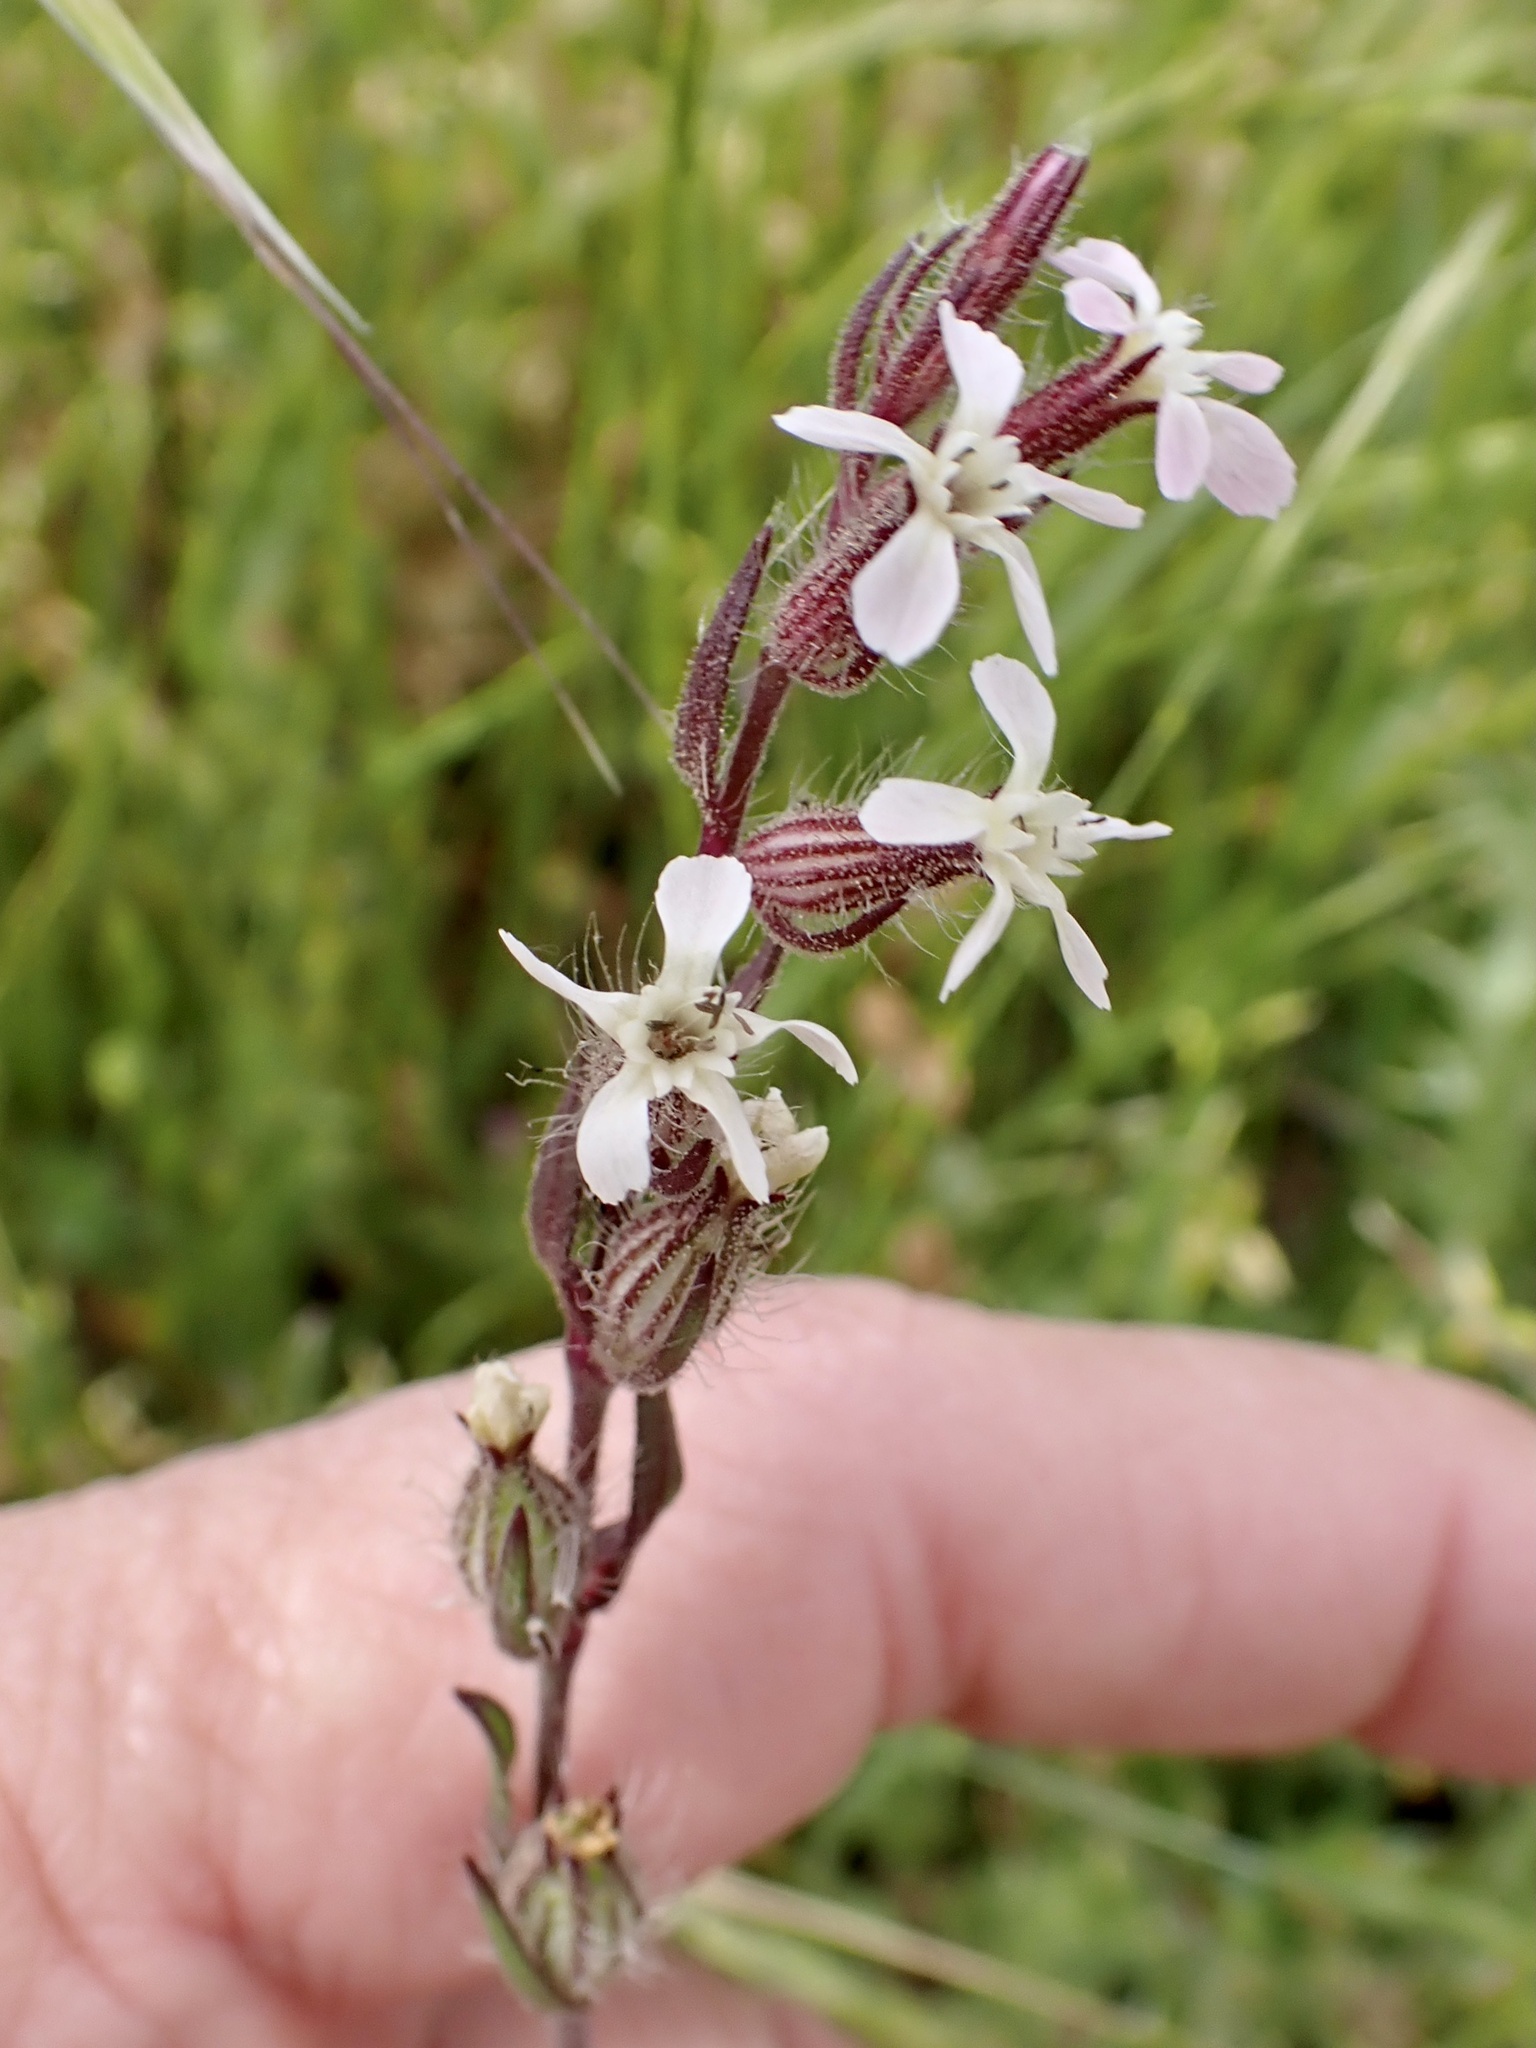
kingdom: Plantae
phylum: Tracheophyta
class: Magnoliopsida
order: Caryophyllales
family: Caryophyllaceae
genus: Silene
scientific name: Silene gallica
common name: Small-flowered catchfly
